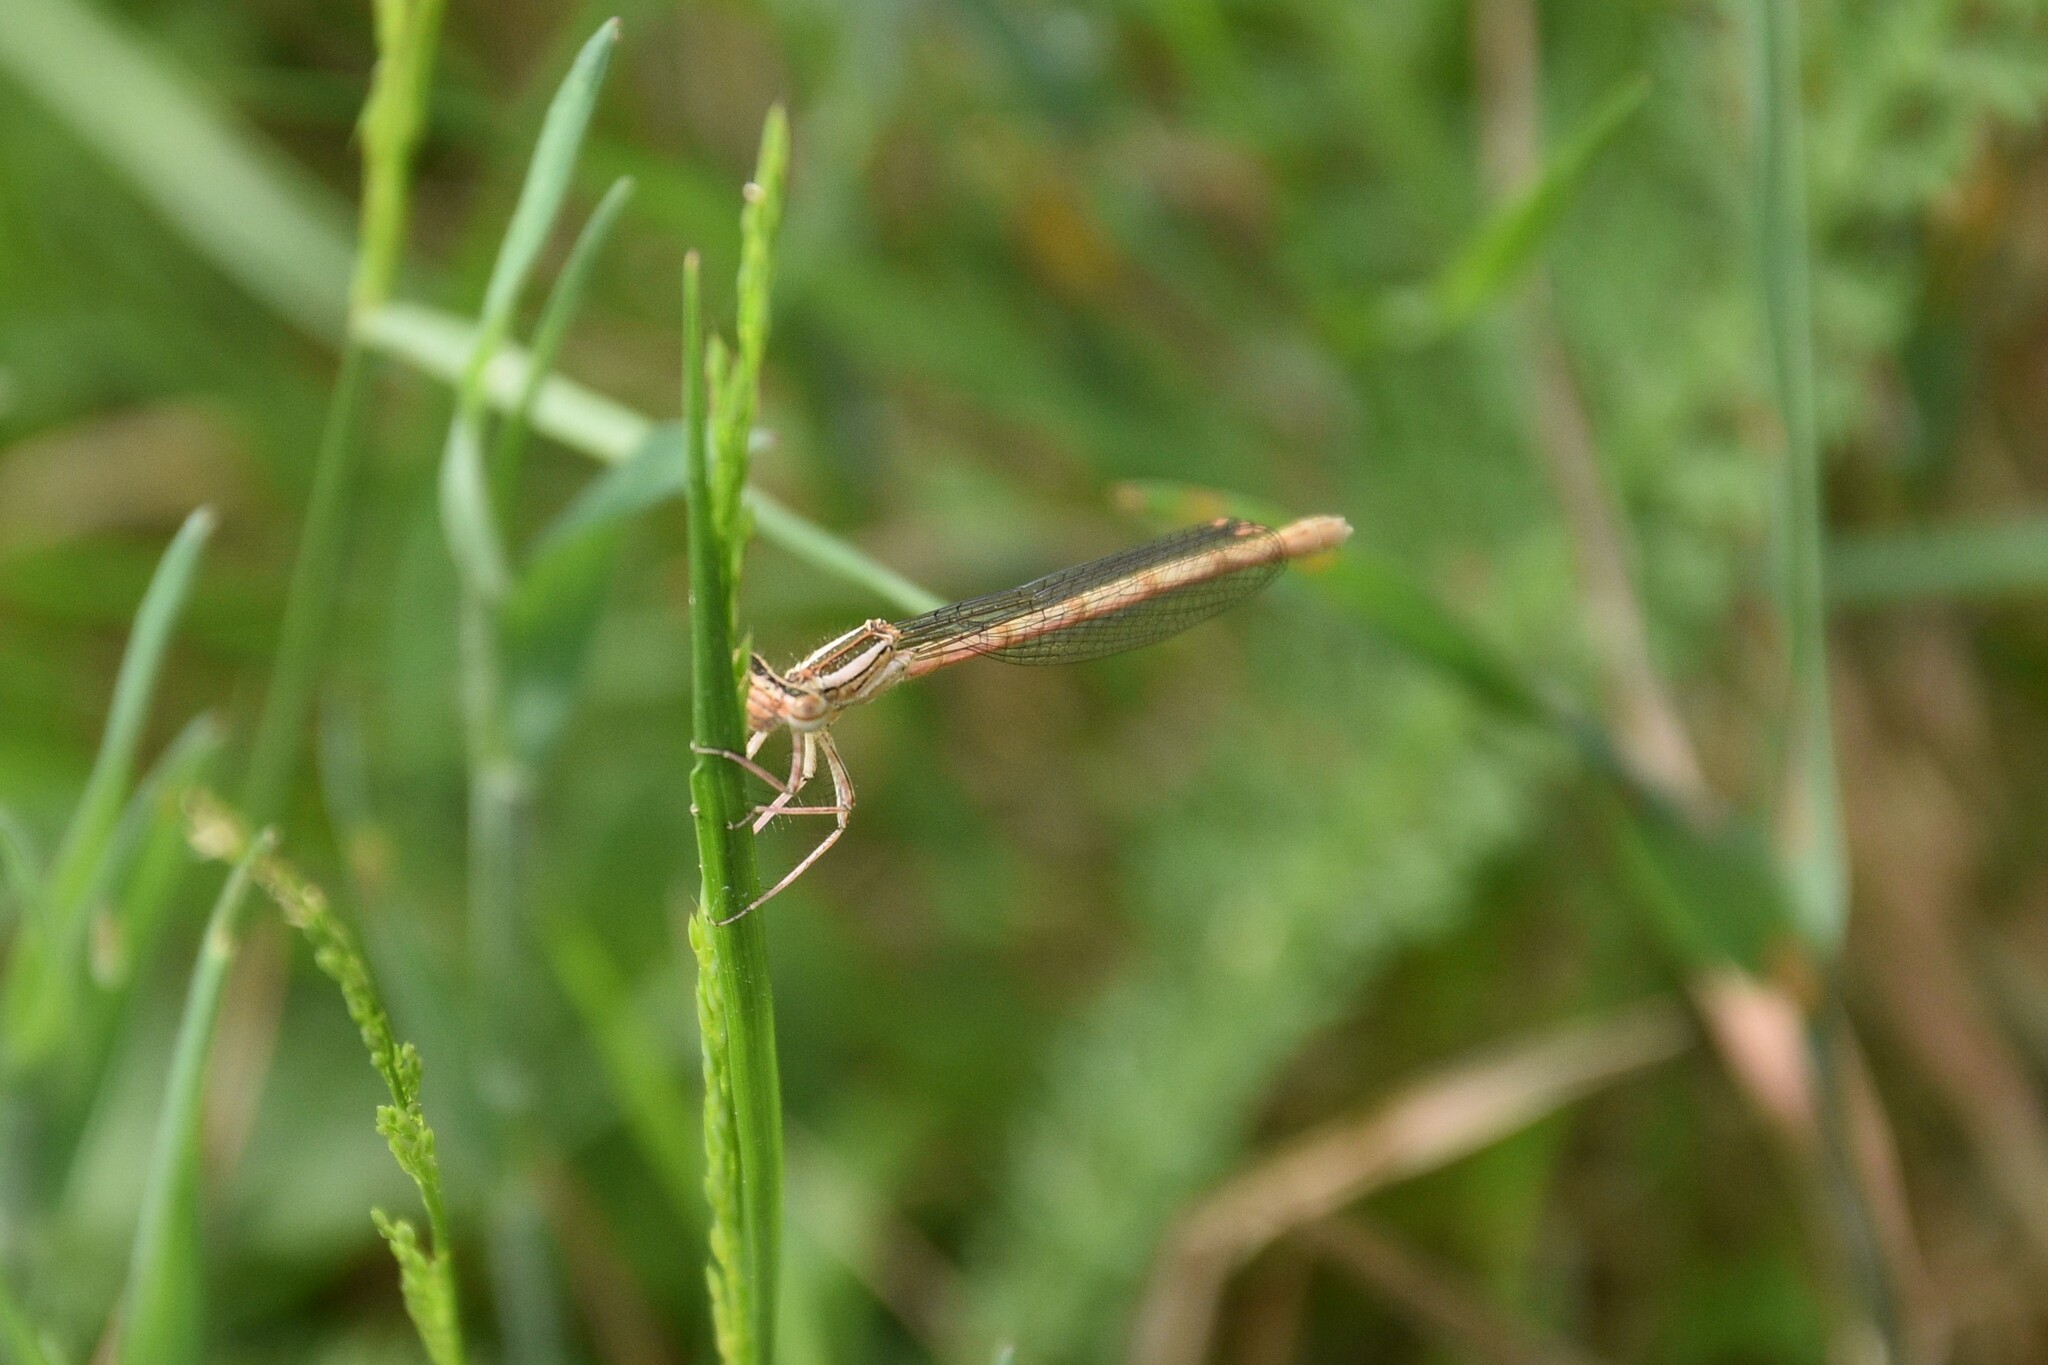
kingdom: Animalia
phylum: Arthropoda
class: Insecta
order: Odonata
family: Platycnemididae
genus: Platycnemis
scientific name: Platycnemis acutipennis
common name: Orange featherleg
